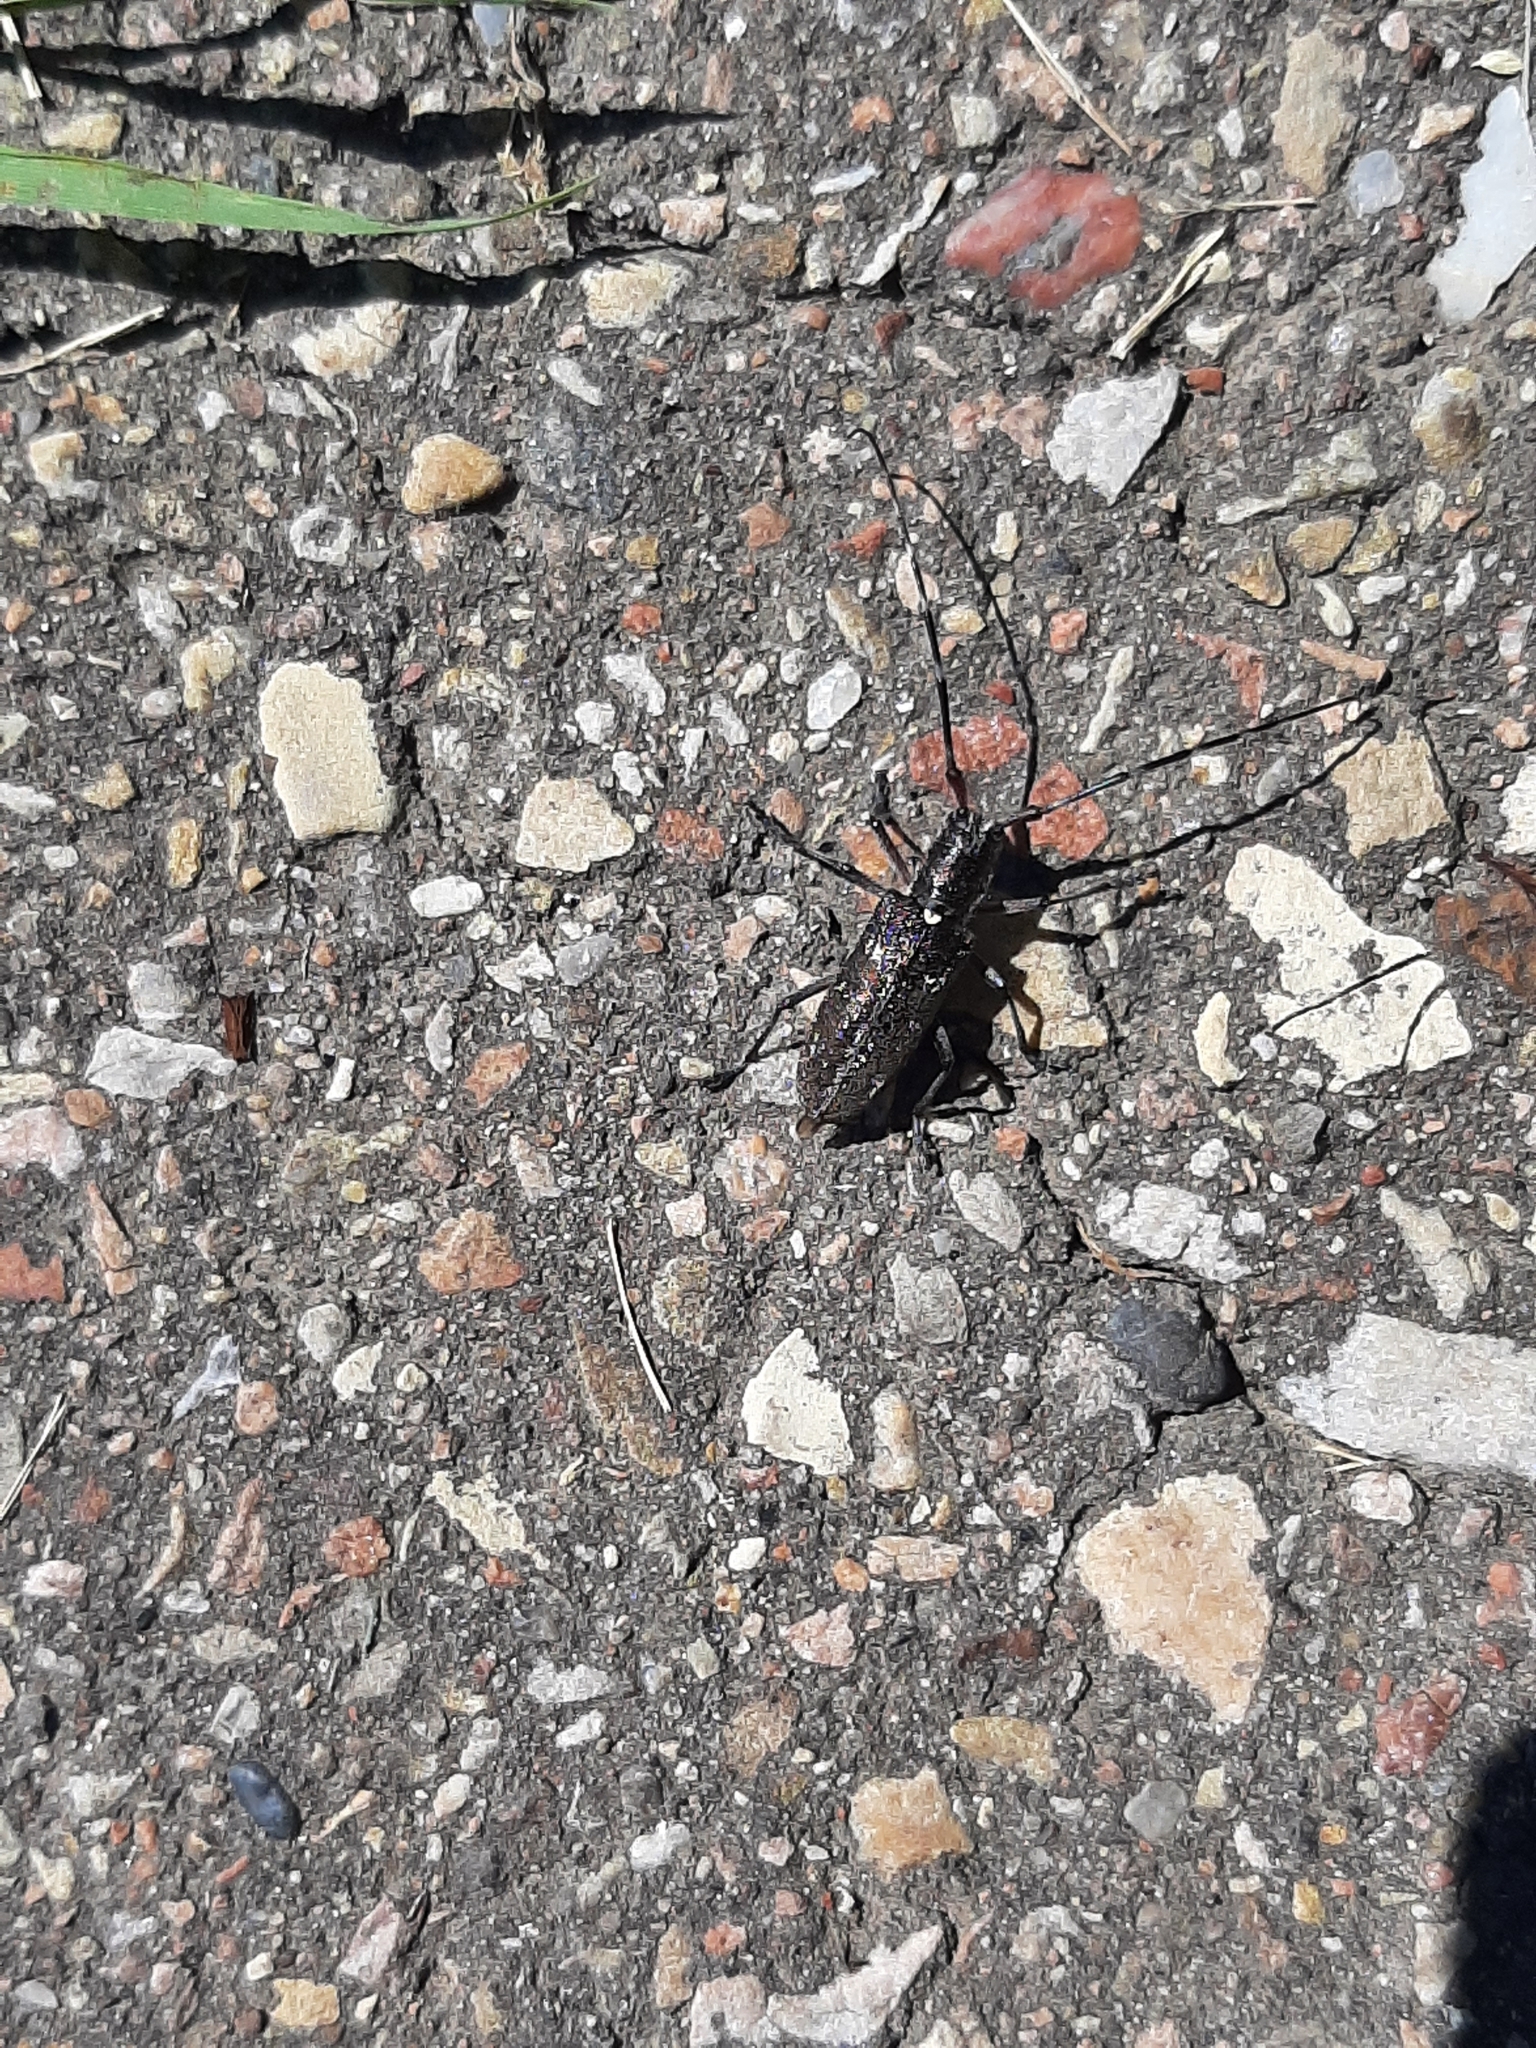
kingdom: Animalia
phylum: Arthropoda
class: Insecta
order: Coleoptera
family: Cerambycidae
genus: Monochamus
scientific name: Monochamus scutellatus
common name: White-spotted sawyer beetle
